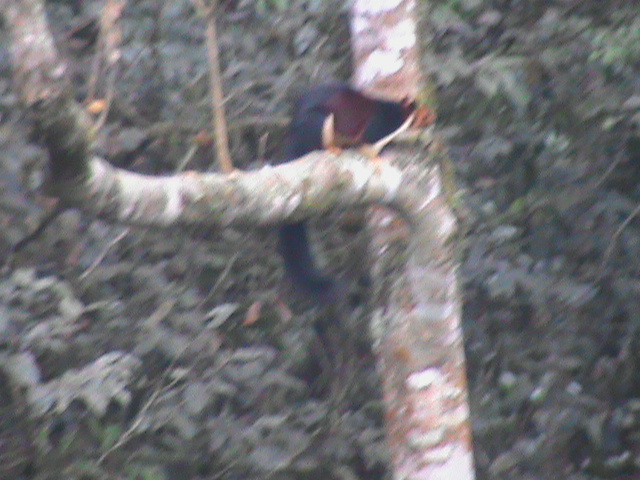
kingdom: Animalia
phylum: Chordata
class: Mammalia
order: Rodentia
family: Sciuridae
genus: Ratufa
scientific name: Ratufa indica
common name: Indian giant squirrel
